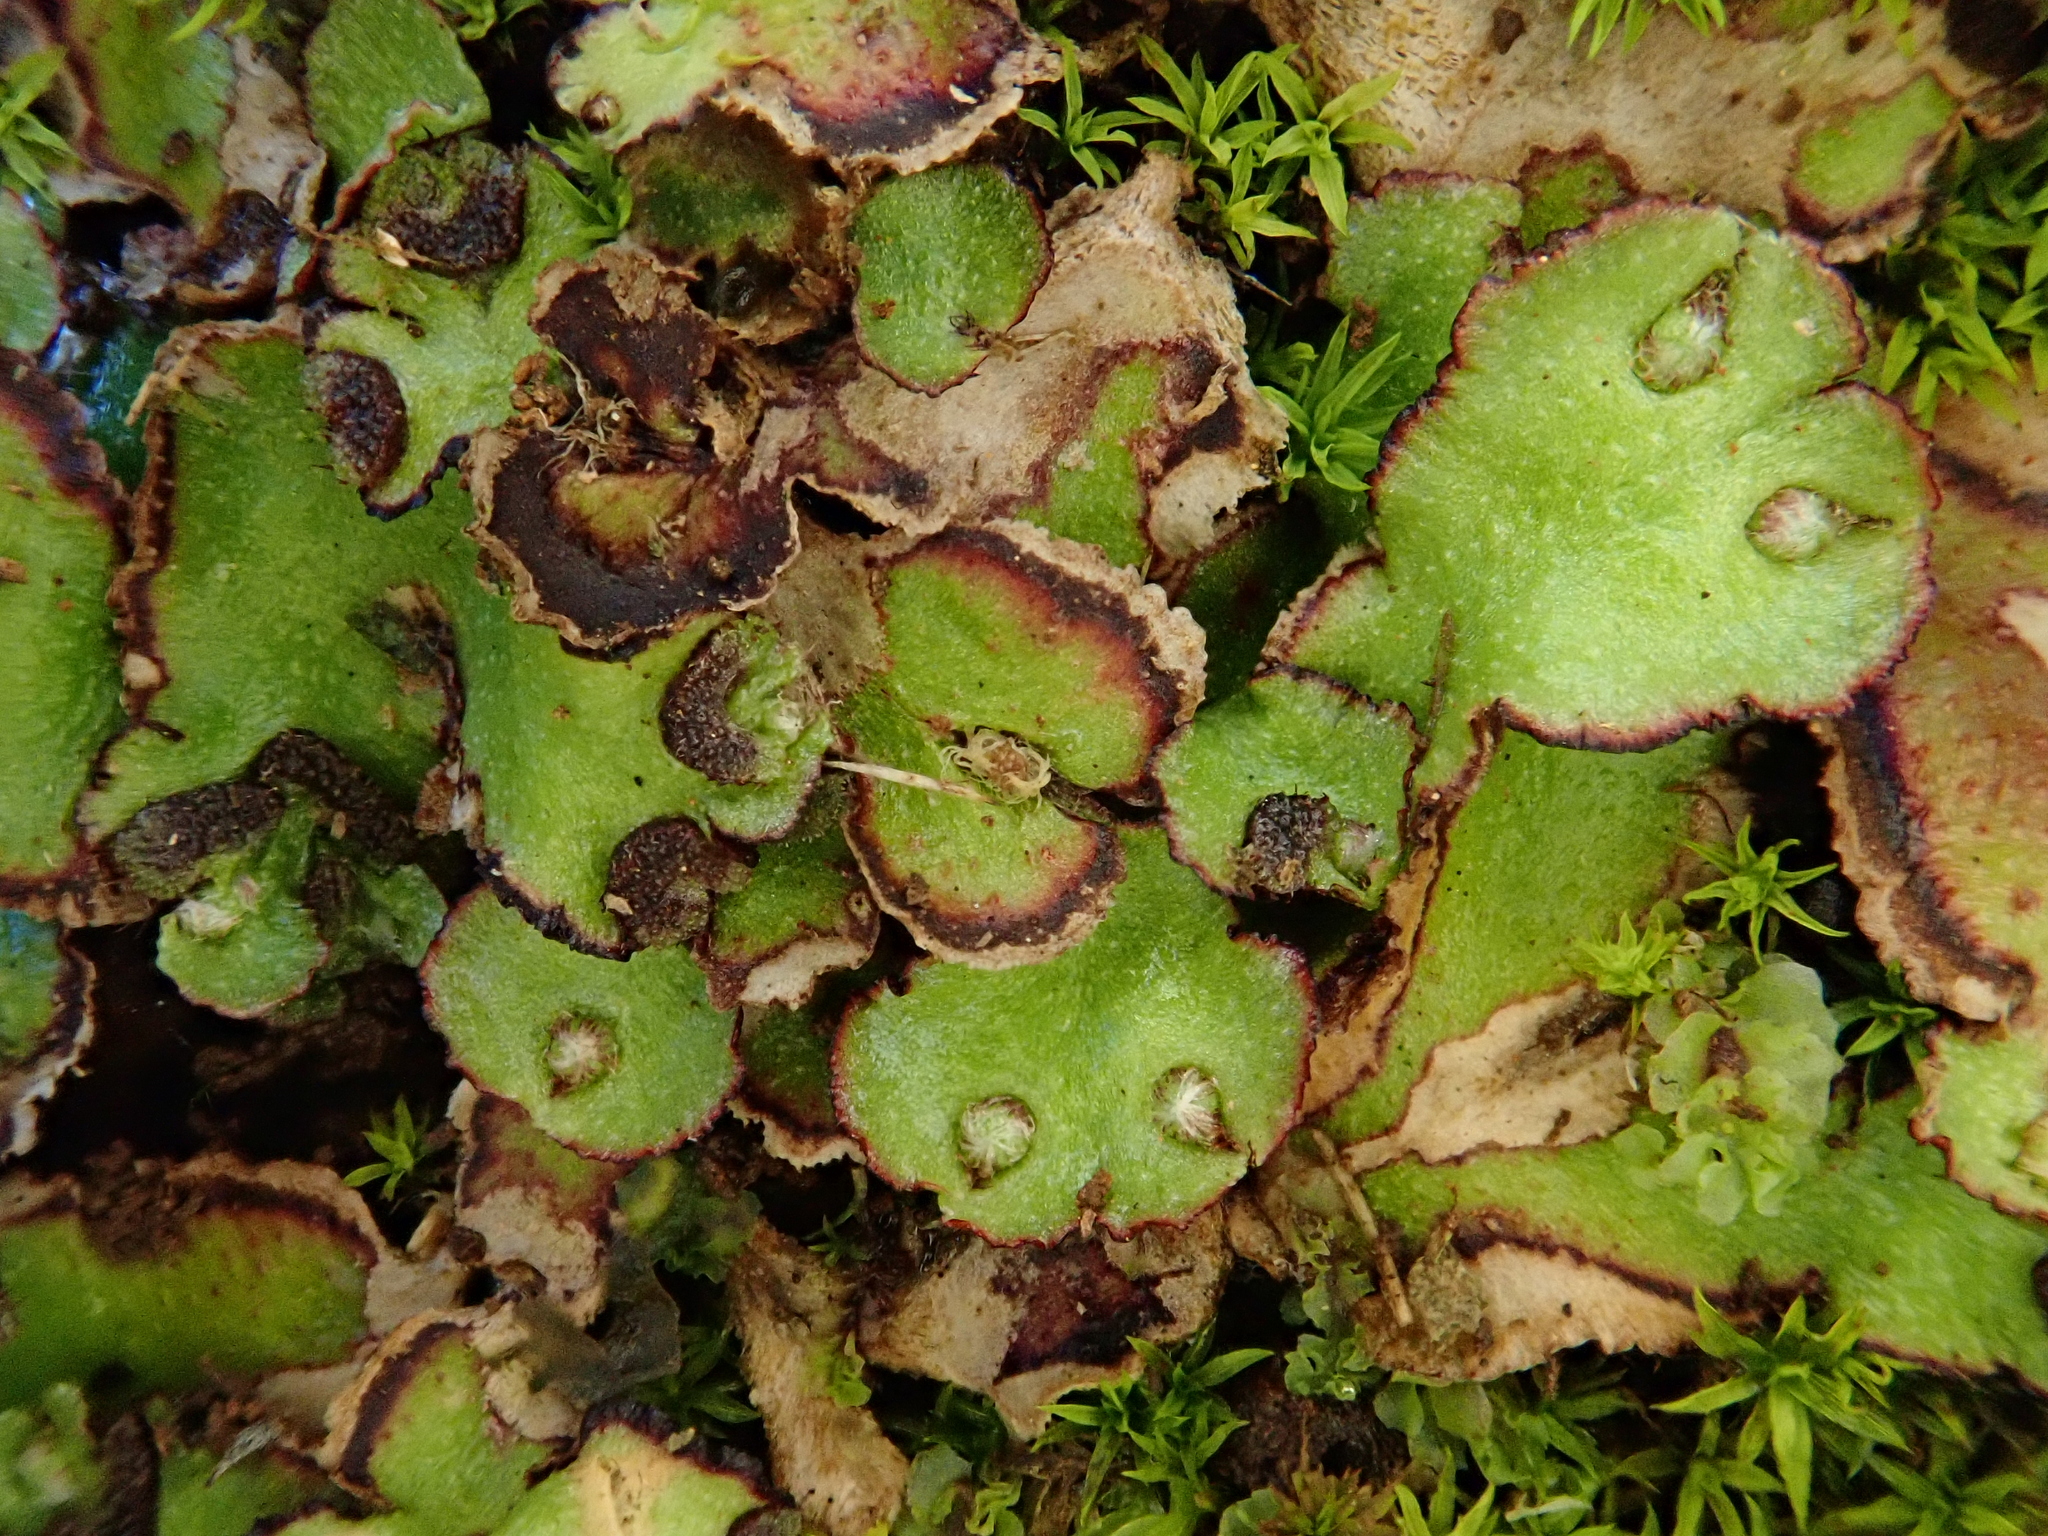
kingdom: Plantae
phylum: Marchantiophyta
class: Marchantiopsida
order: Marchantiales
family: Aytoniaceae
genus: Reboulia
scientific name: Reboulia hemisphaerica
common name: Purple-margined liverwort
